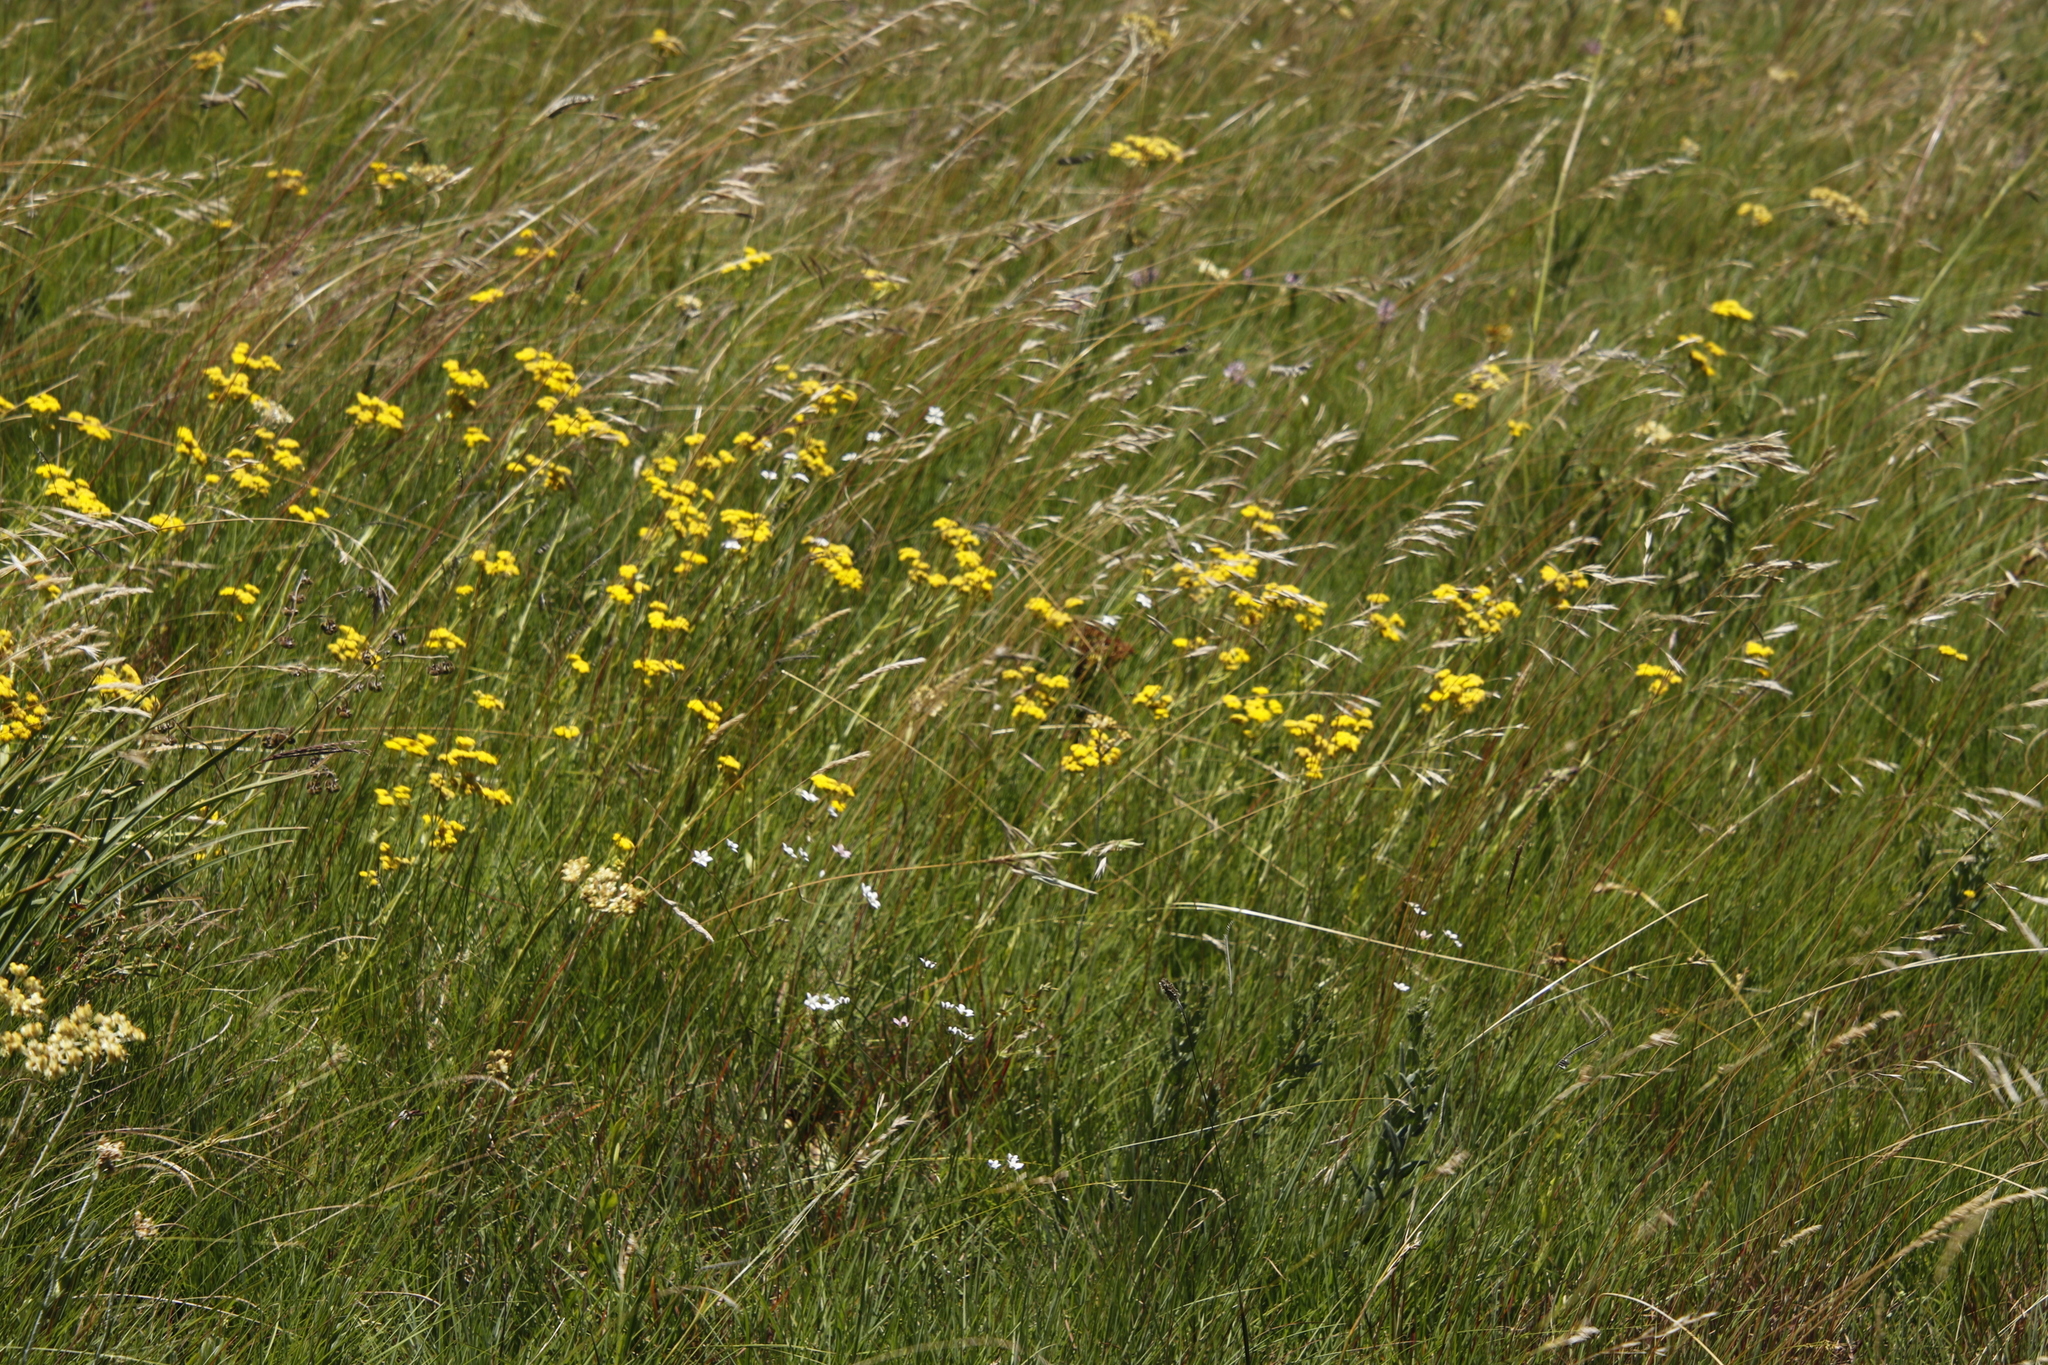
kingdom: Plantae
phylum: Tracheophyta
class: Magnoliopsida
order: Saxifragales
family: Crassulaceae
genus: Crassula
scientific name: Crassula vaginata
